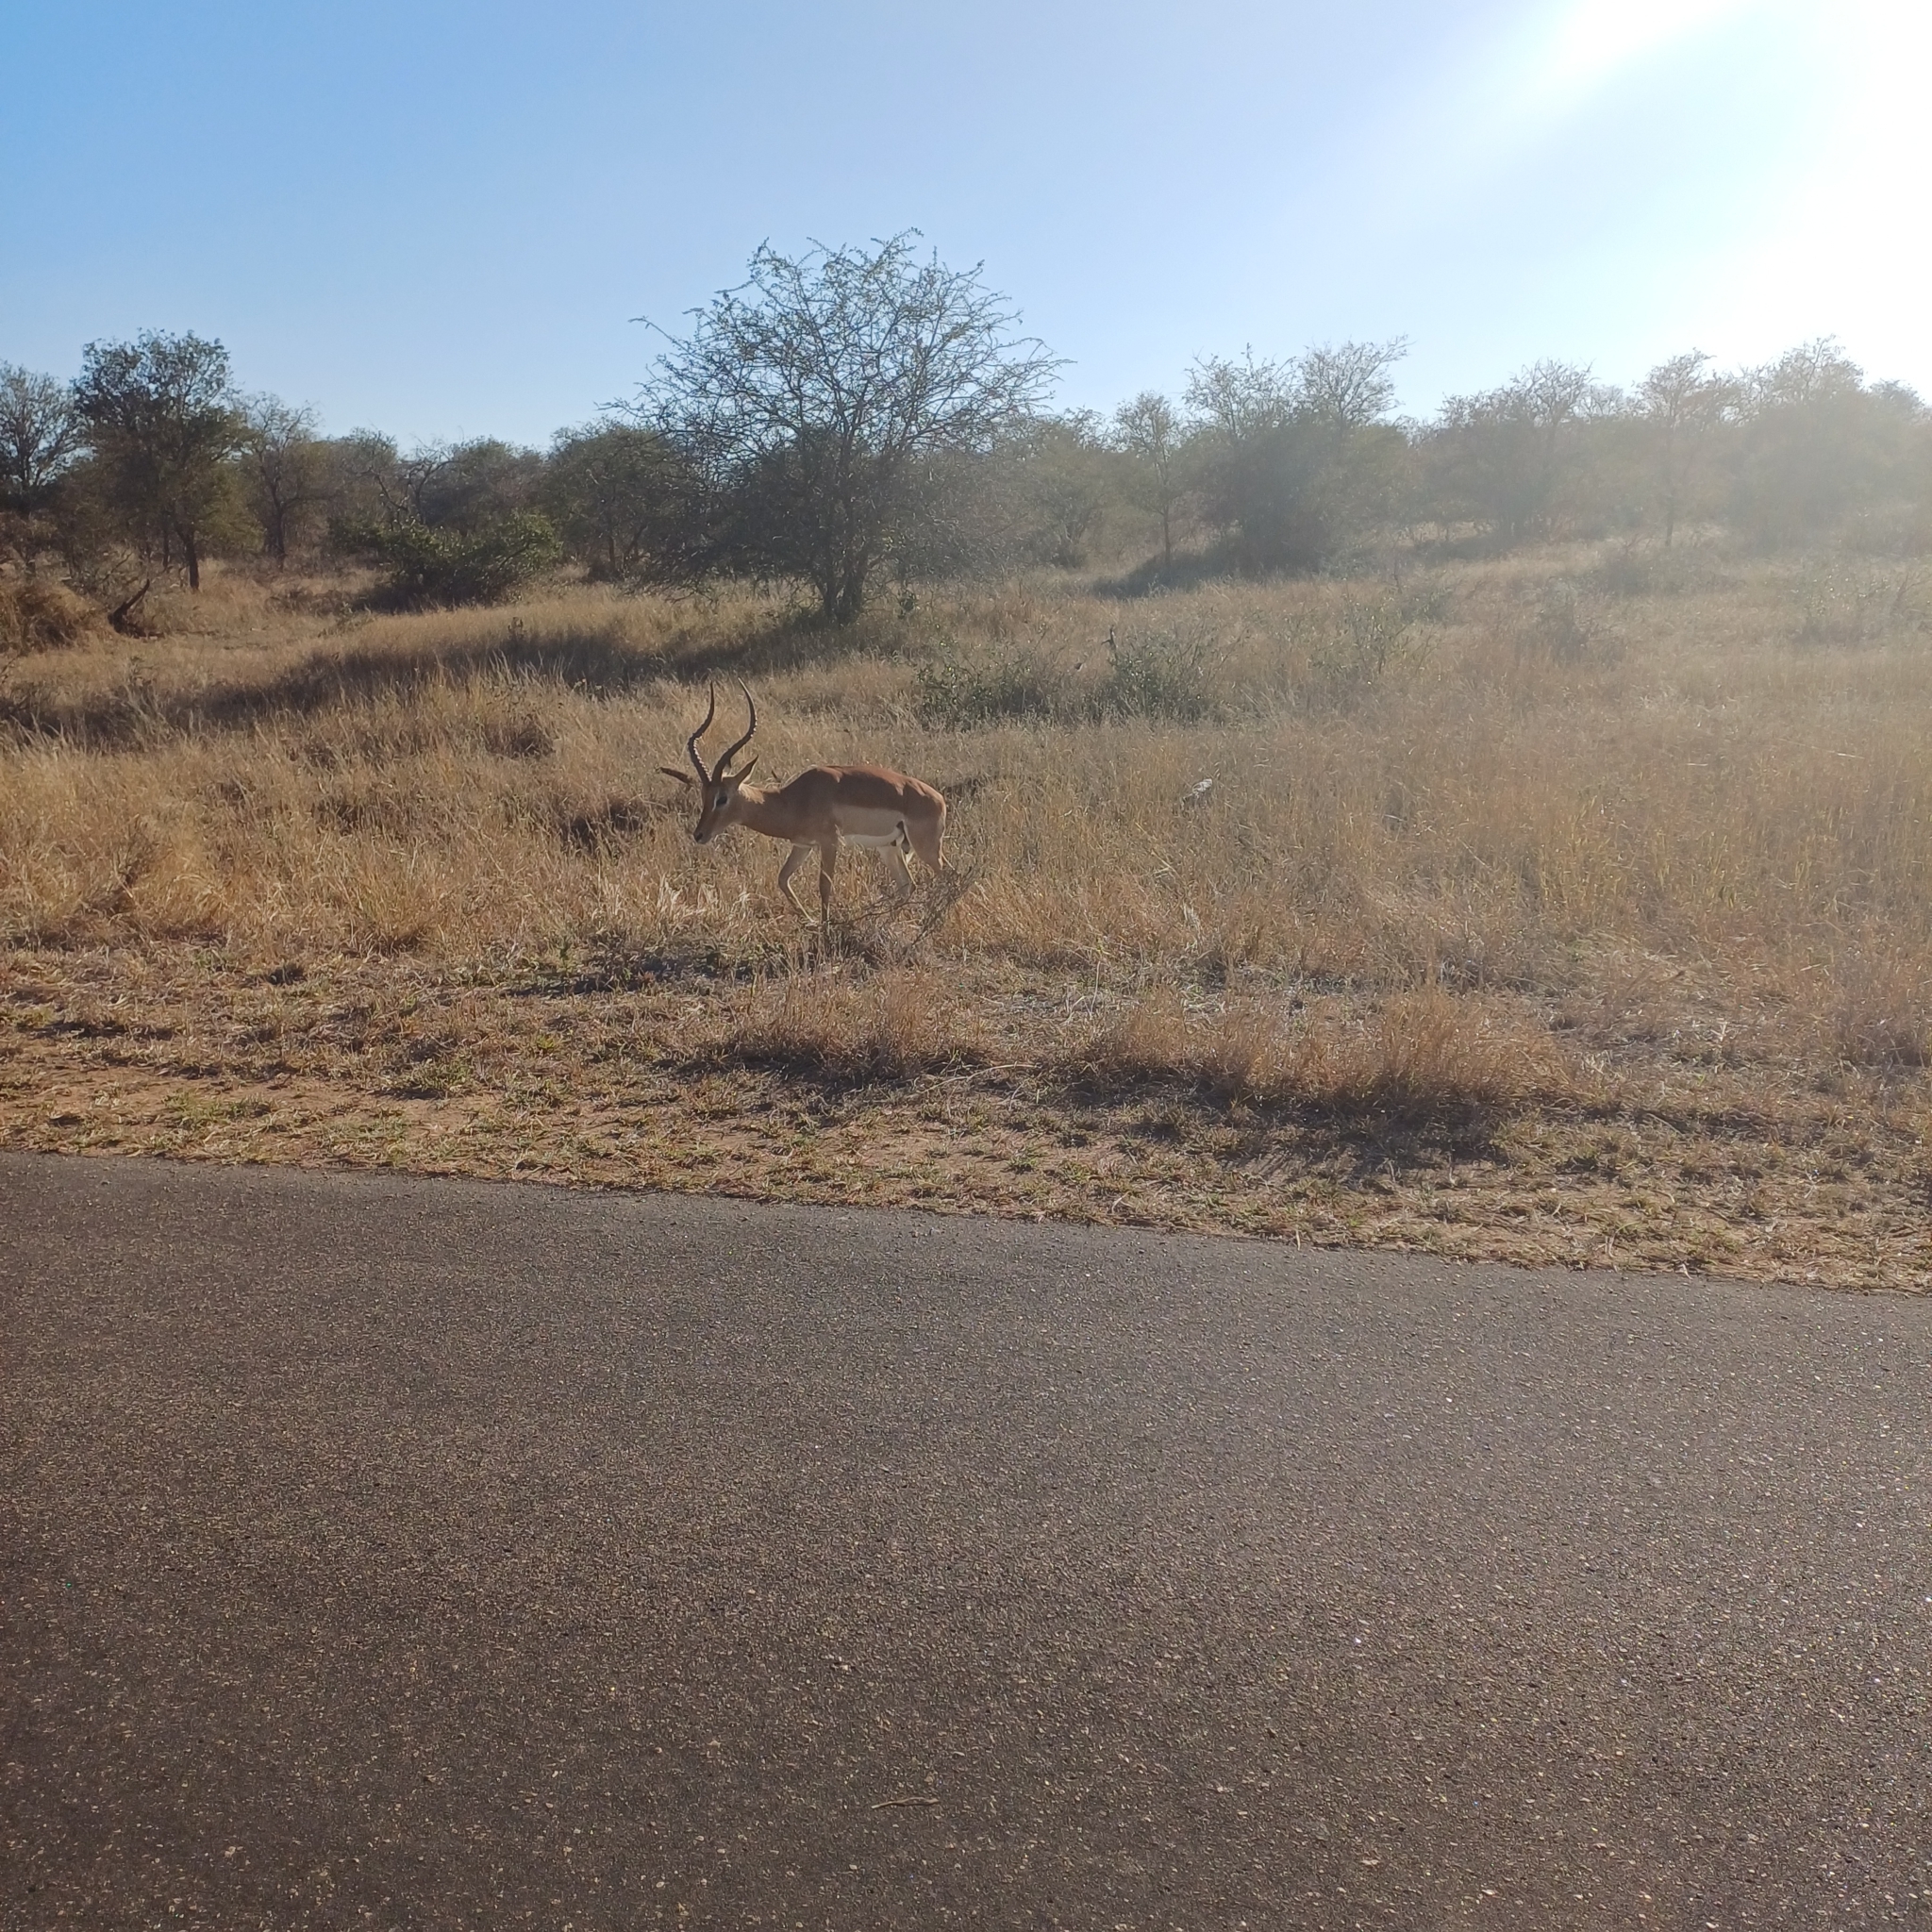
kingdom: Animalia
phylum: Chordata
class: Mammalia
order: Artiodactyla
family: Bovidae
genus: Aepyceros
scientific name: Aepyceros melampus
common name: Impala
